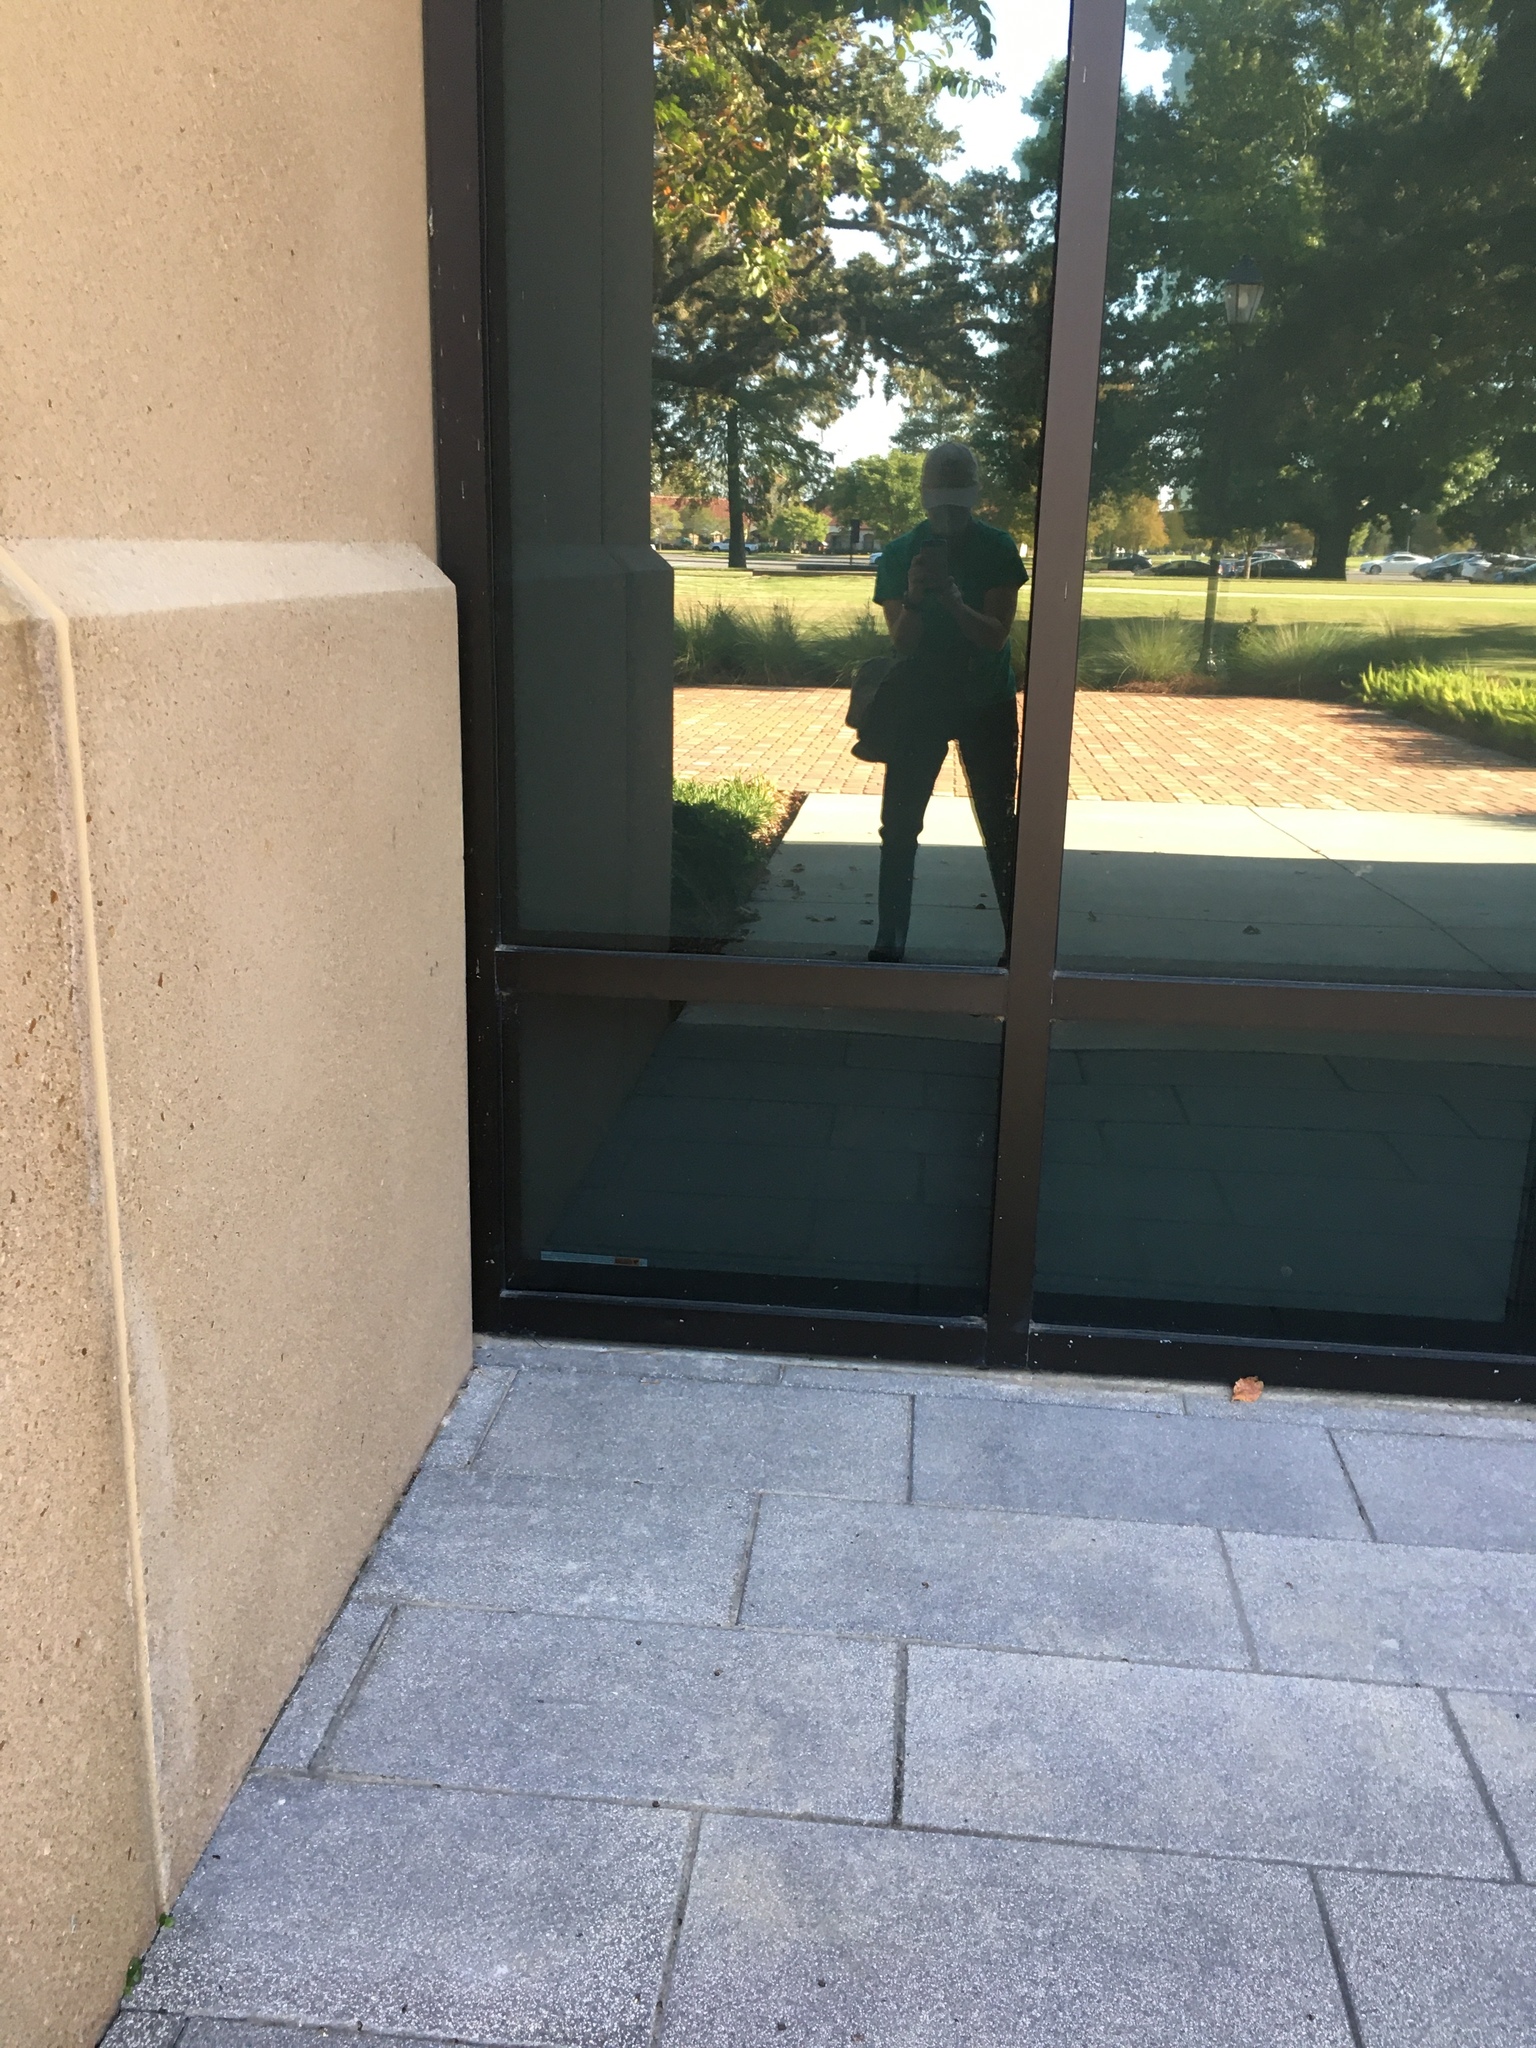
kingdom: Animalia
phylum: Chordata
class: Aves
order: Apodiformes
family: Trochilidae
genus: Archilochus
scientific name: Archilochus colubris
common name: Ruby-throated hummingbird
